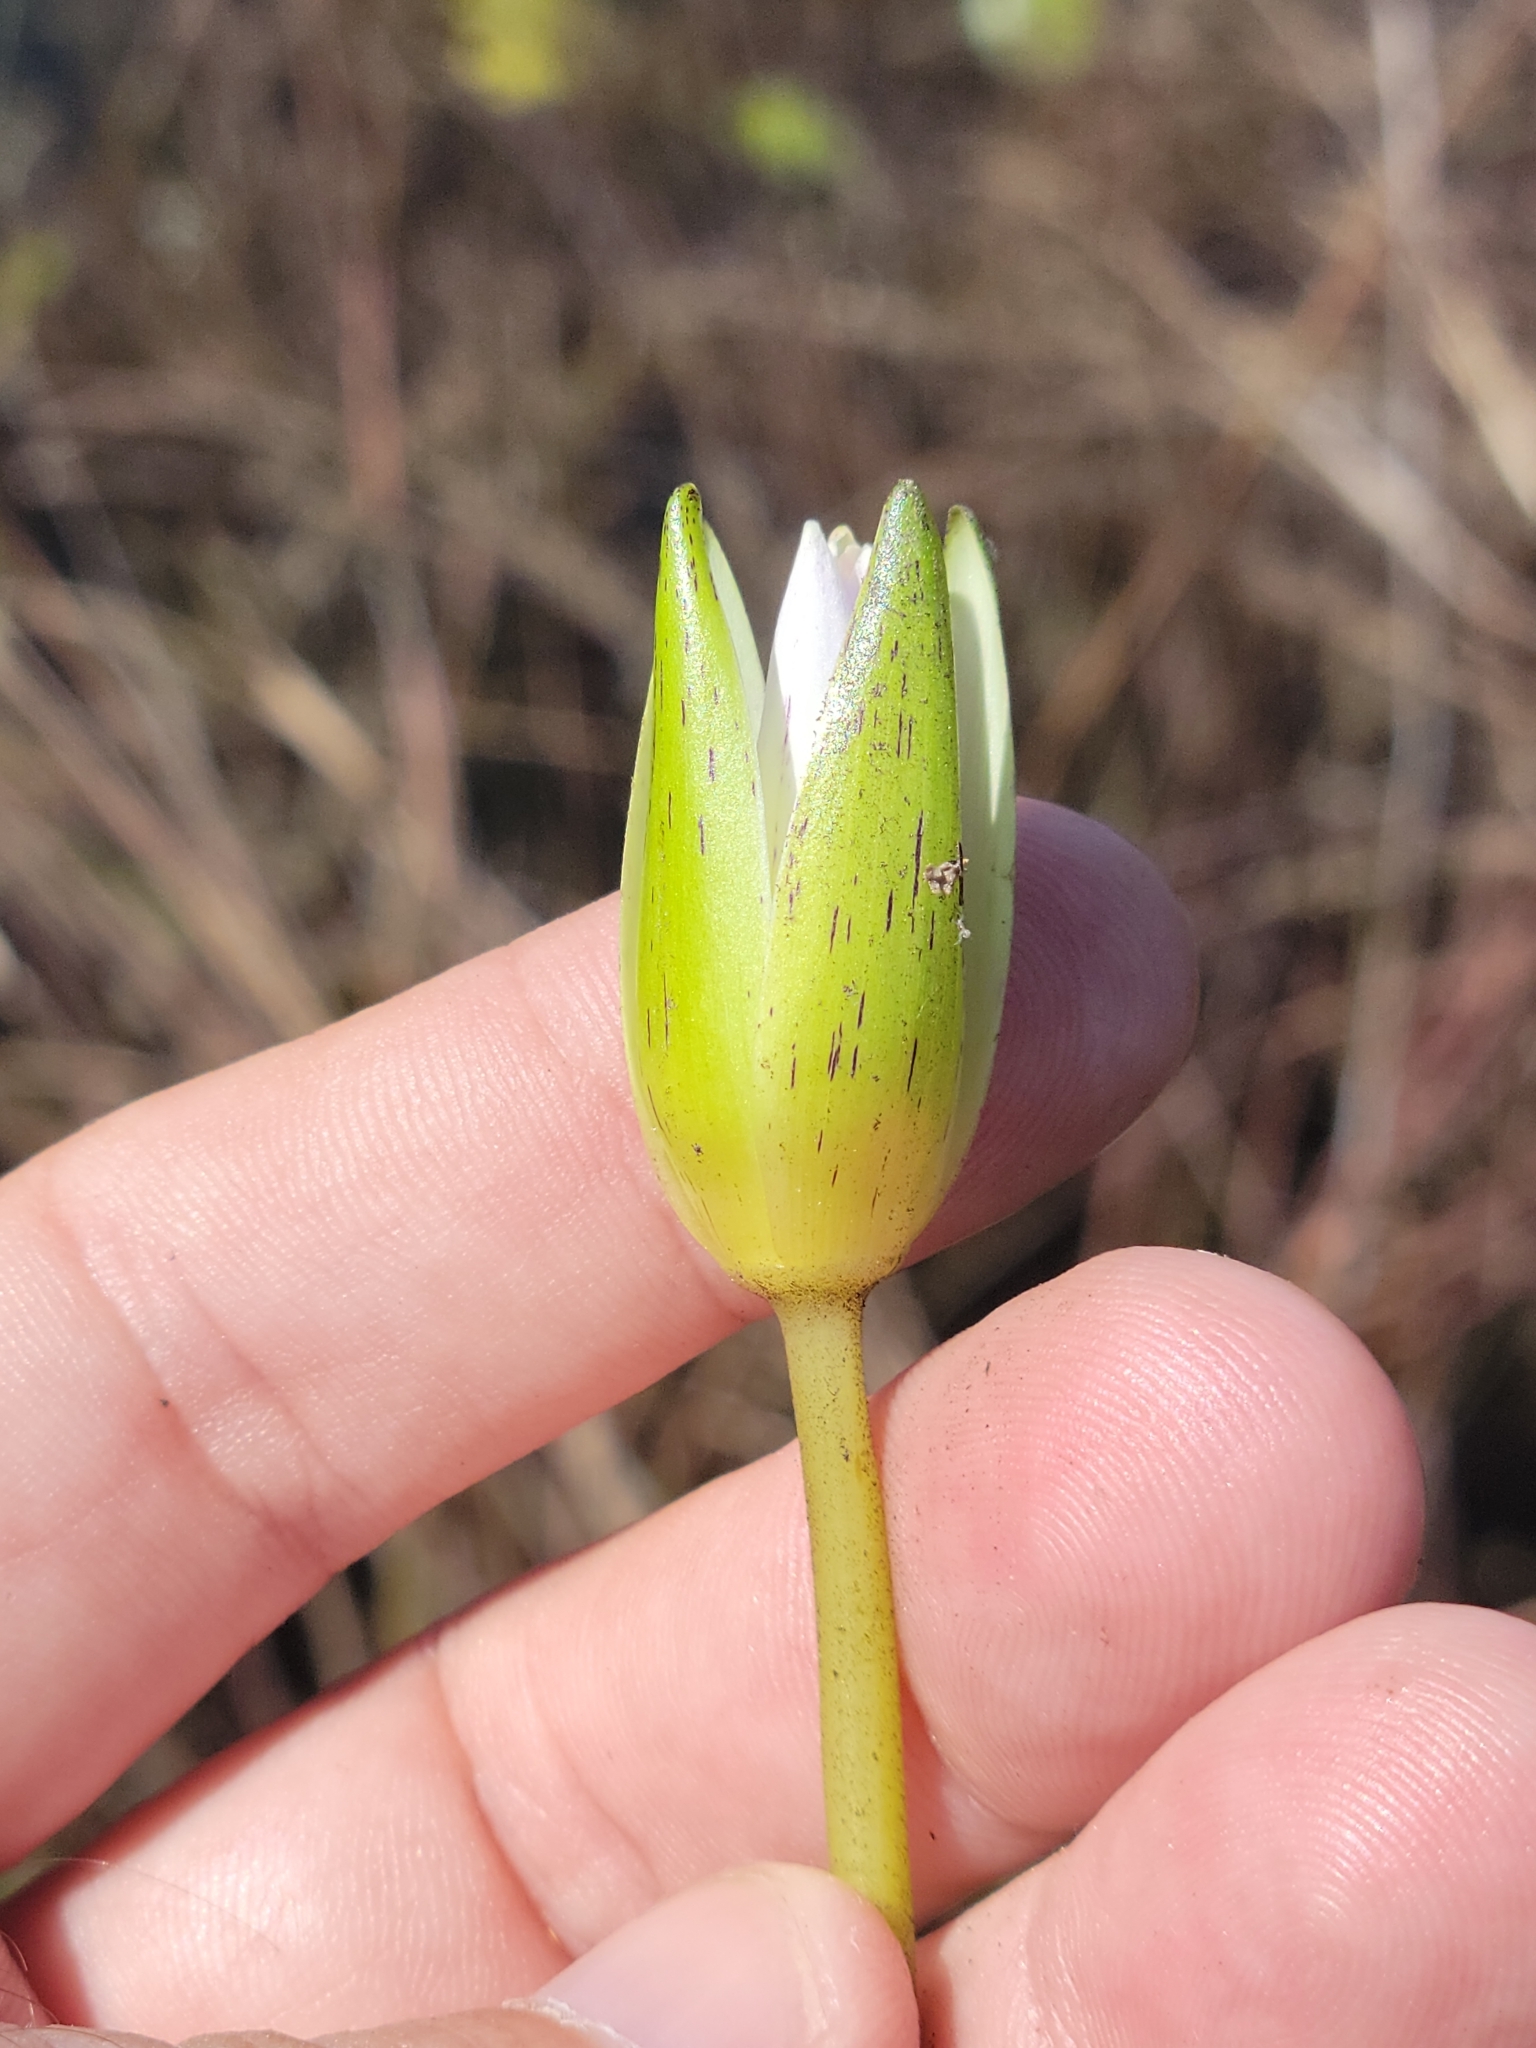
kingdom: Plantae
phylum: Tracheophyta
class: Magnoliopsida
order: Nymphaeales
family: Nymphaeaceae
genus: Nymphaea
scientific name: Nymphaea elegans
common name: Blue water-lily
